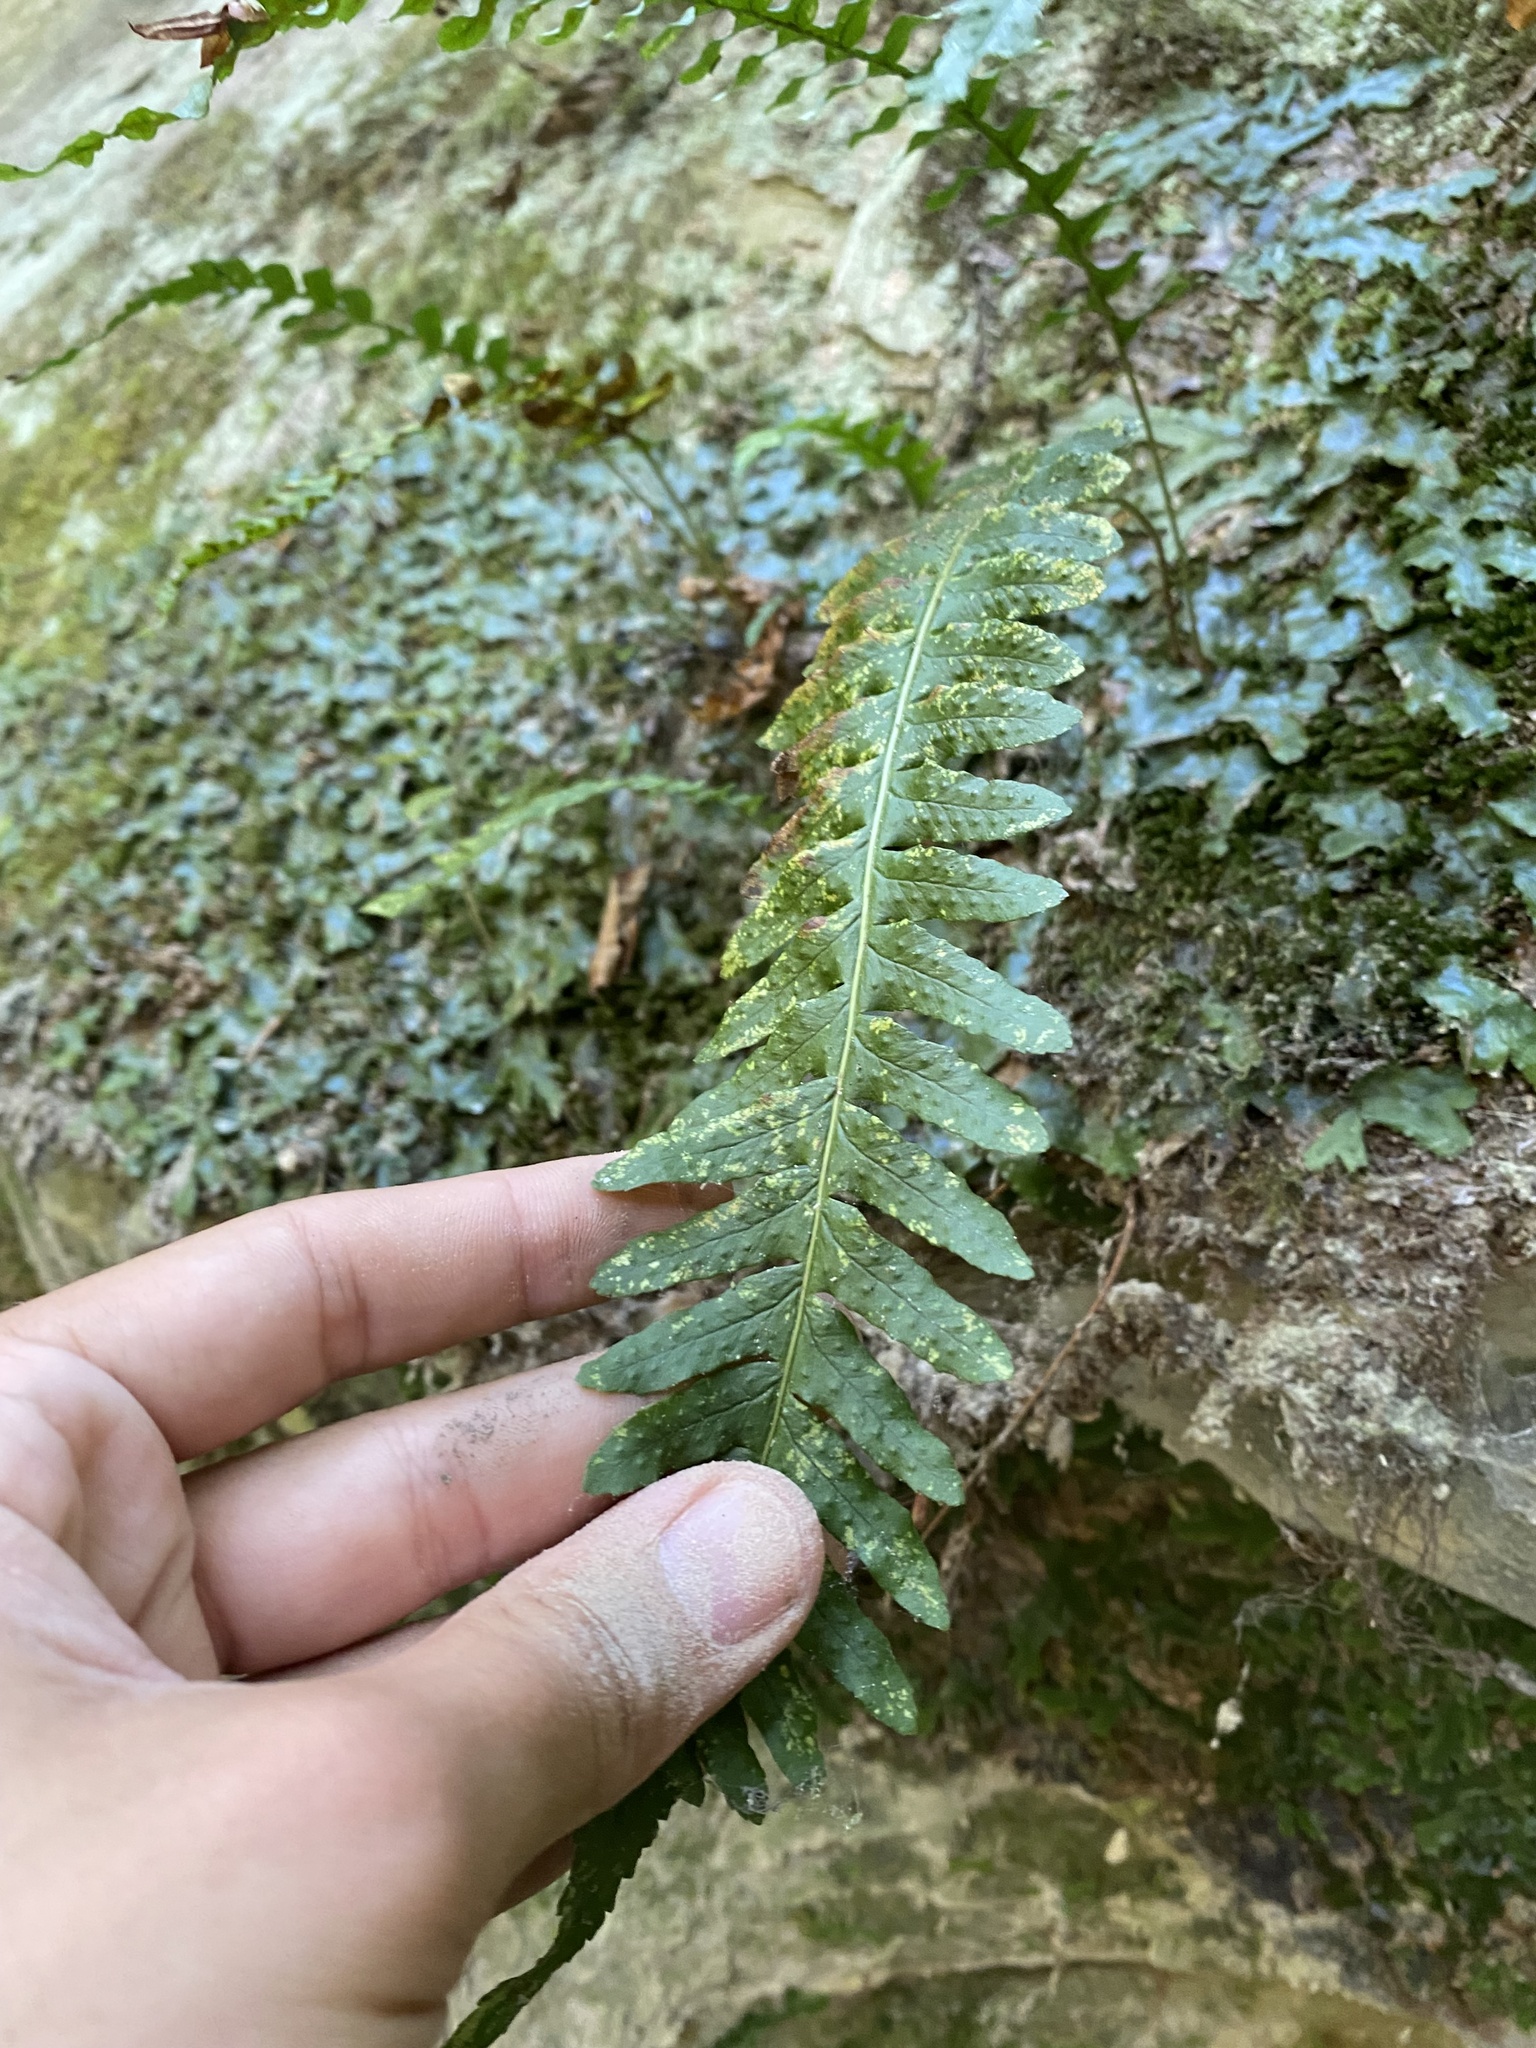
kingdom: Plantae
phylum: Tracheophyta
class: Polypodiopsida
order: Polypodiales
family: Polypodiaceae
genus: Polypodium
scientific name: Polypodium vulgare
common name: Common polypody
